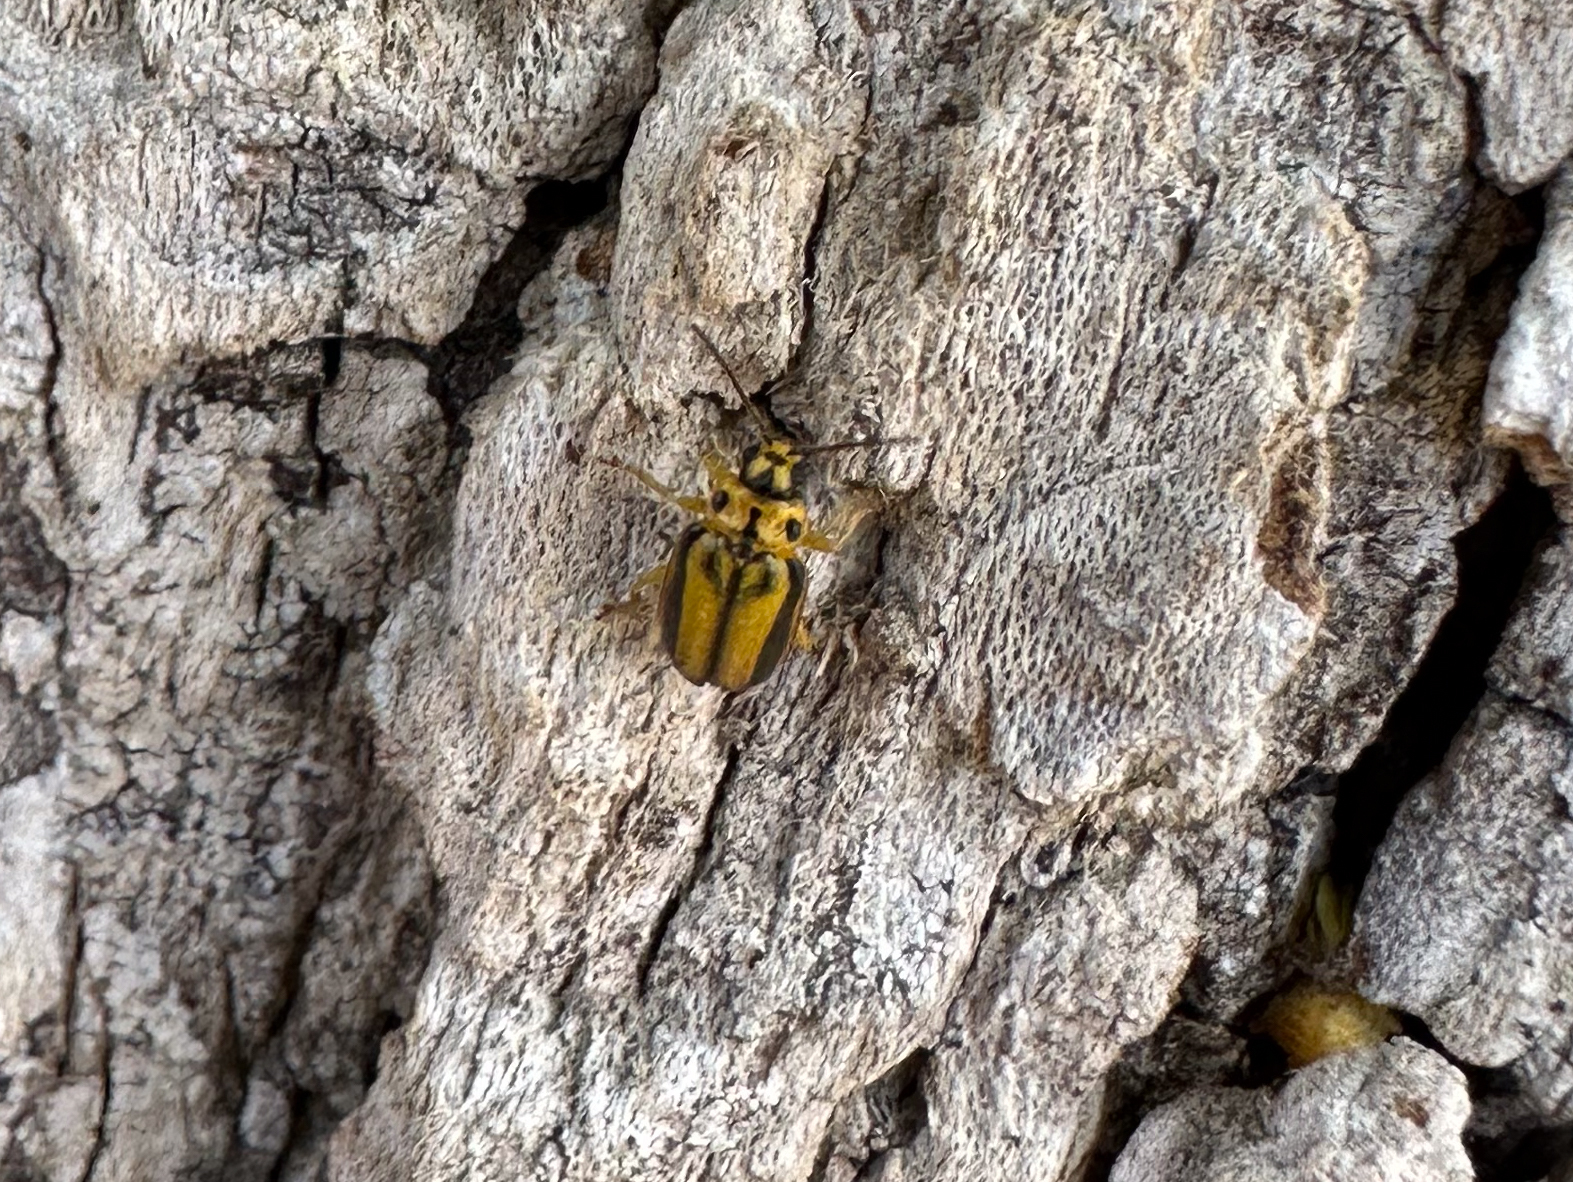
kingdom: Animalia
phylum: Arthropoda
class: Insecta
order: Coleoptera
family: Chrysomelidae
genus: Xanthogaleruca
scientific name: Xanthogaleruca luteola
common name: Elm leaf beetle
